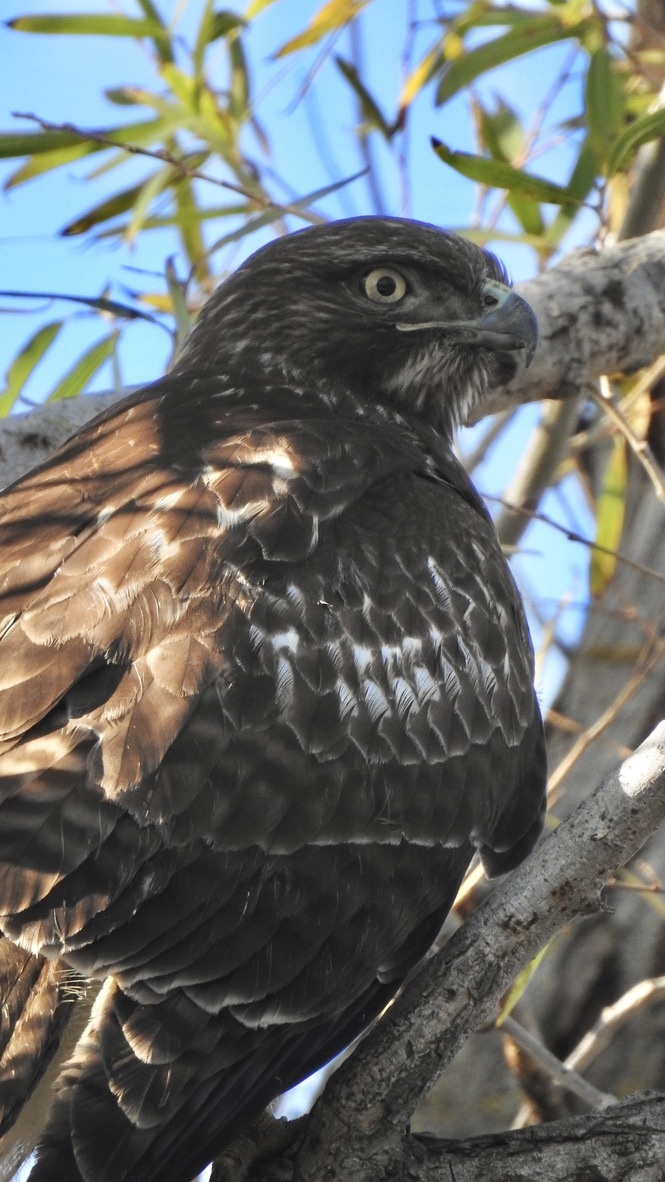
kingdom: Animalia
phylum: Chordata
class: Aves
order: Accipitriformes
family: Accipitridae
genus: Buteo
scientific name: Buteo jamaicensis
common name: Red-tailed hawk
